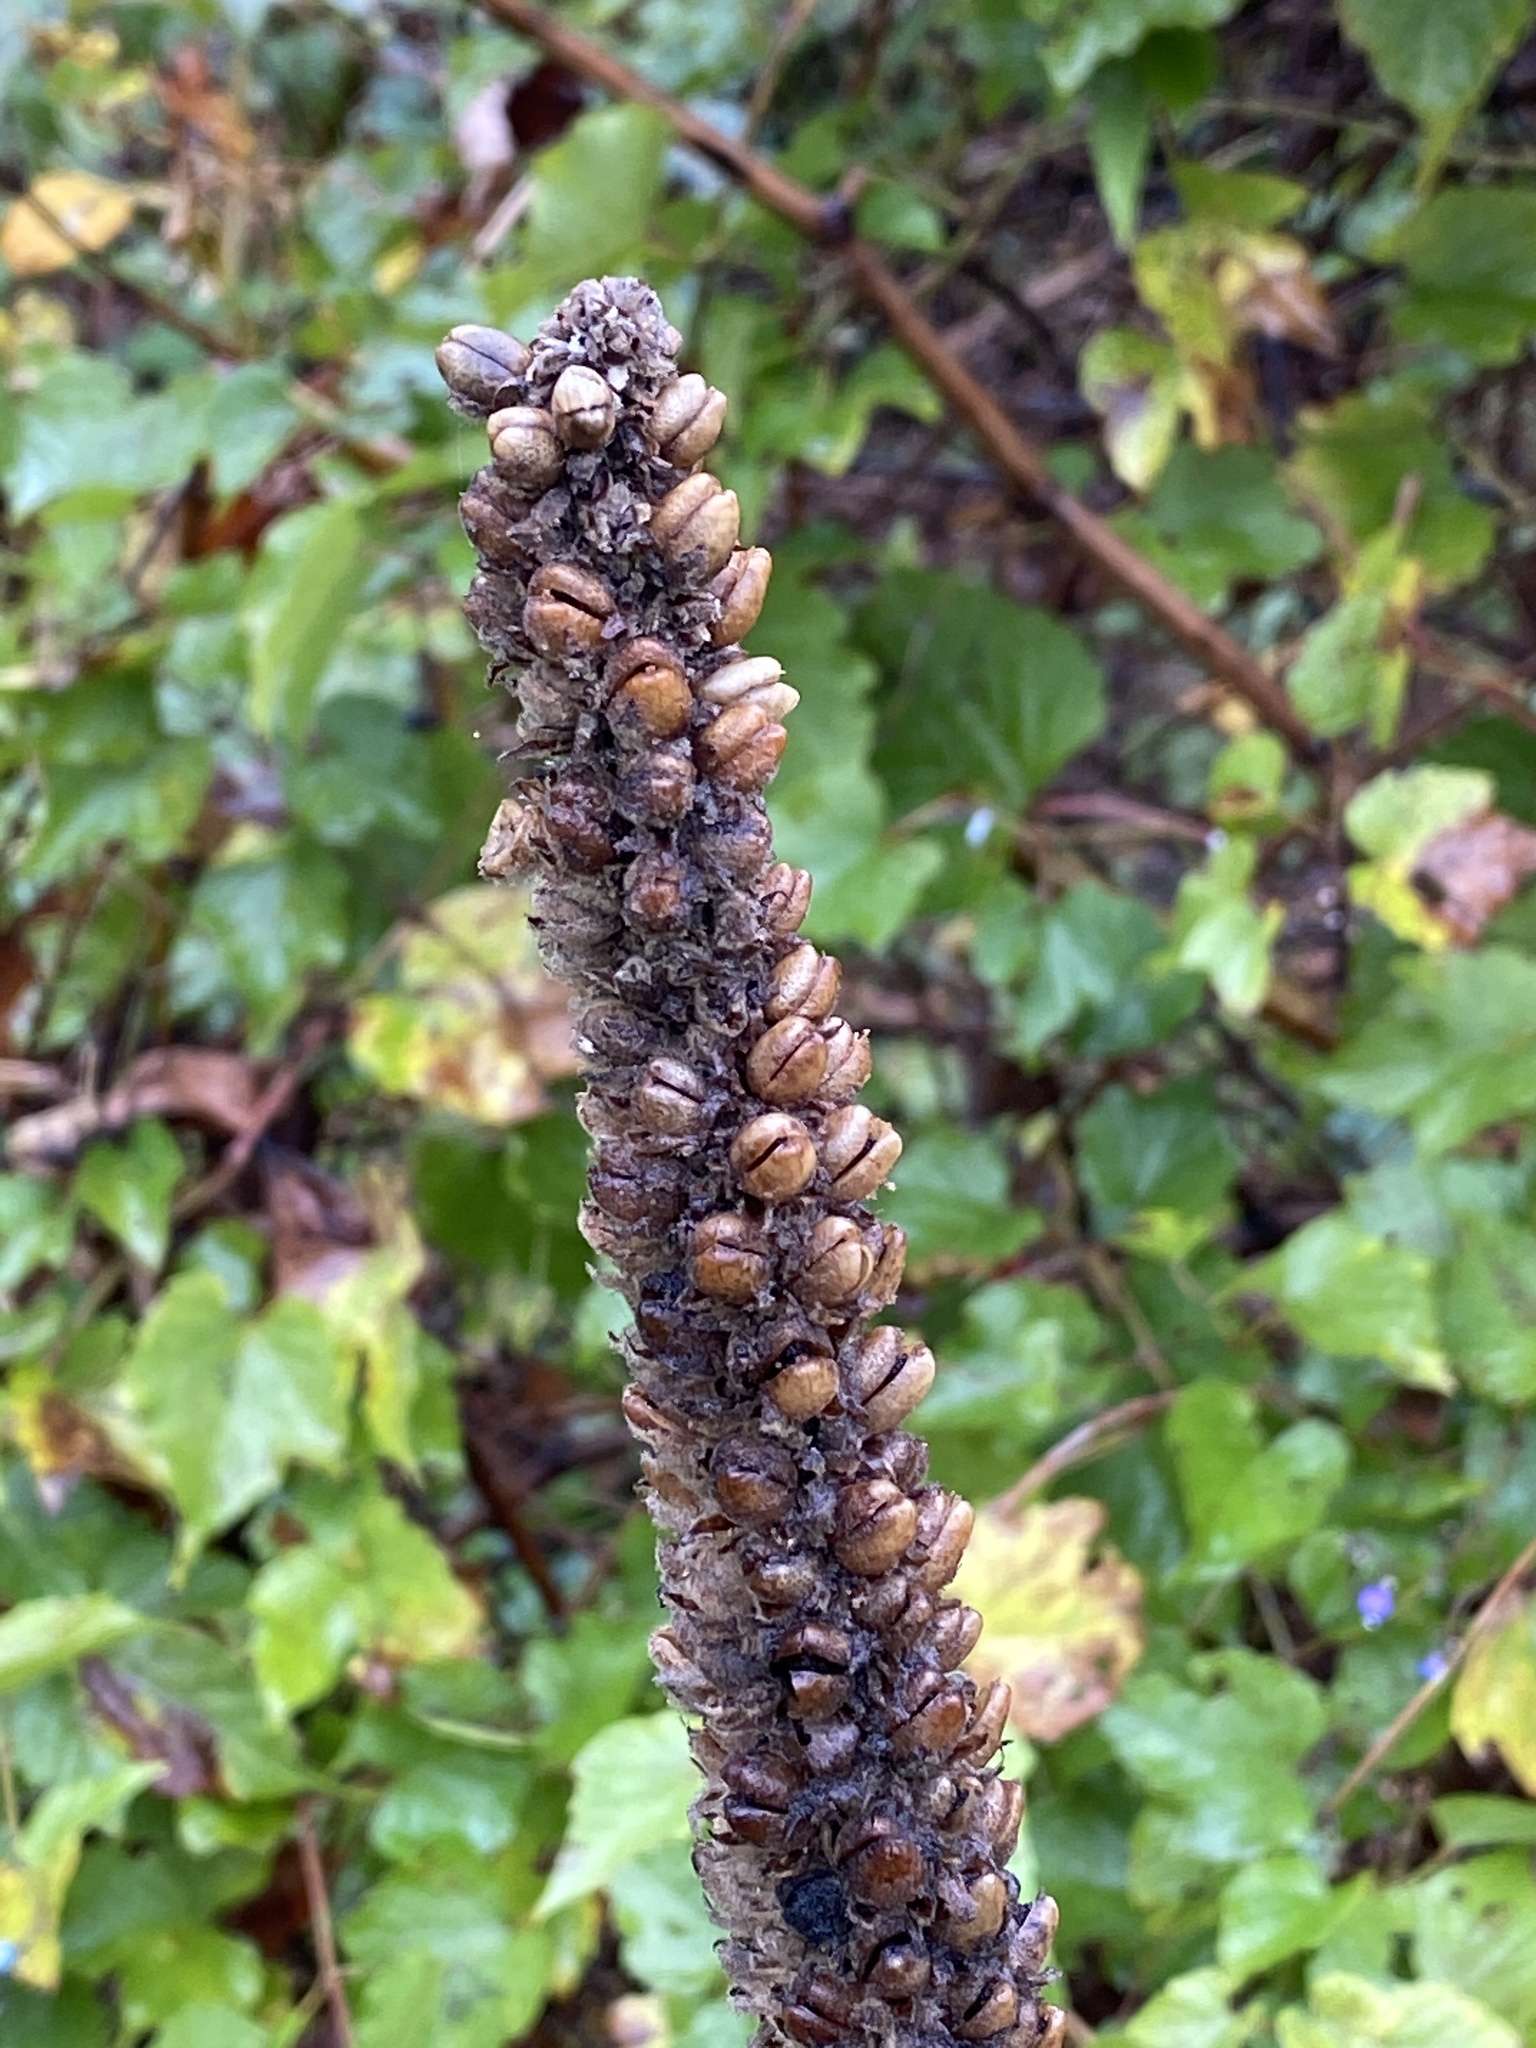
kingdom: Plantae
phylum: Tracheophyta
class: Magnoliopsida
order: Lamiales
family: Scrophulariaceae
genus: Verbascum
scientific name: Verbascum thapsus
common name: Common mullein
